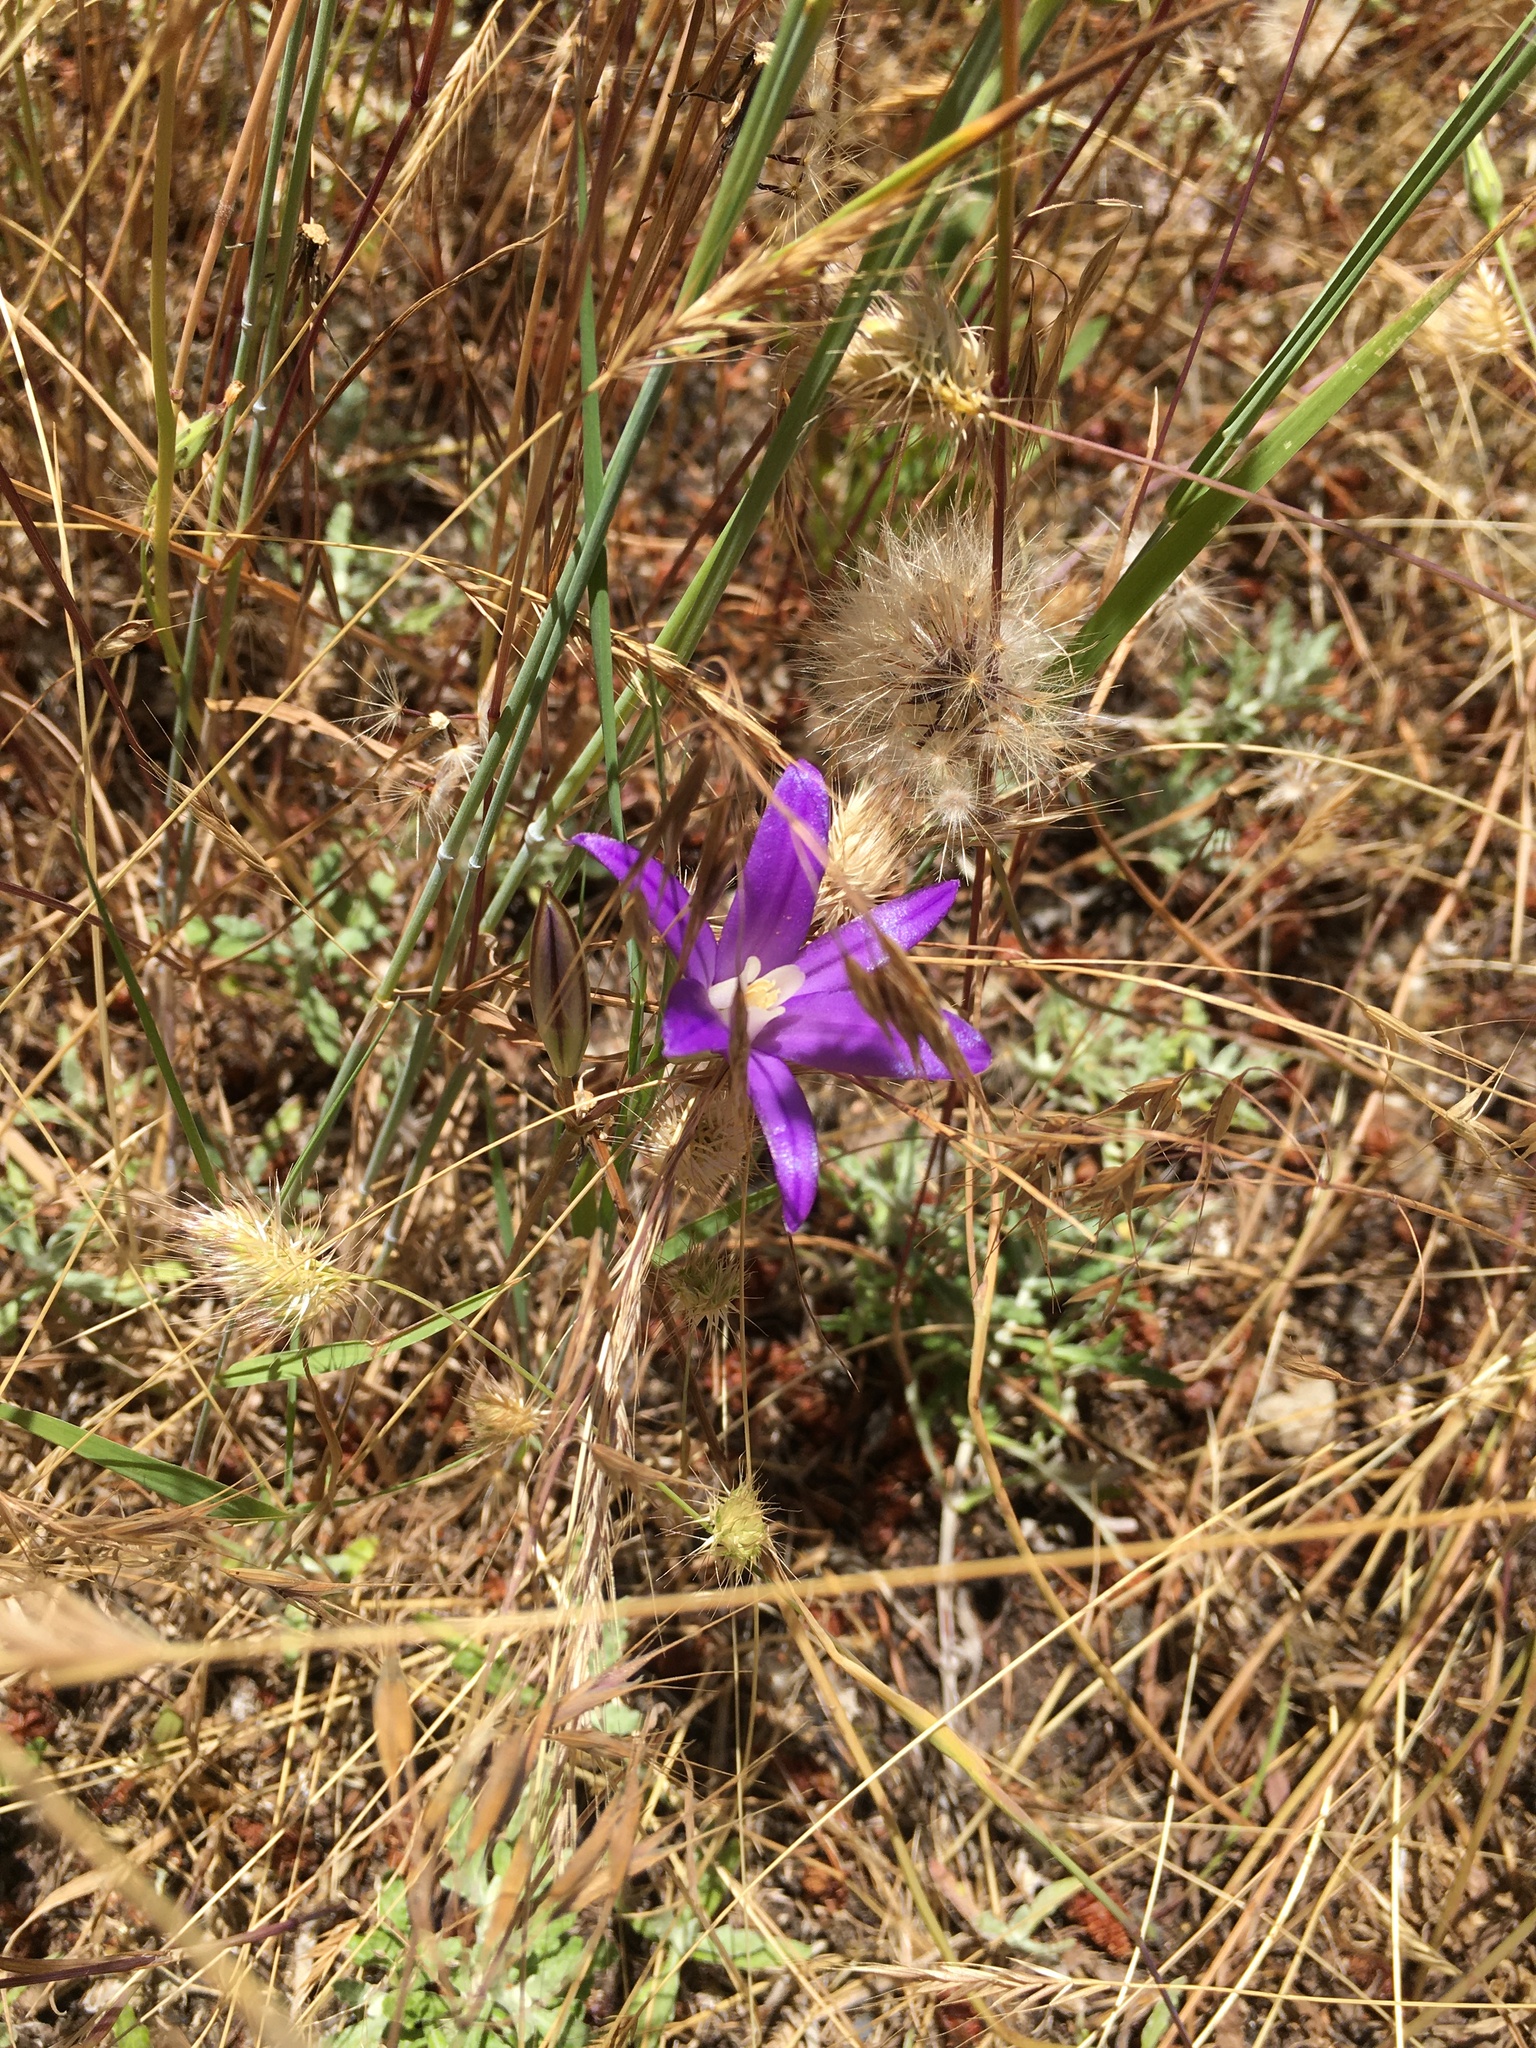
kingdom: Plantae
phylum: Tracheophyta
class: Liliopsida
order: Asparagales
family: Asparagaceae
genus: Brodiaea
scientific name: Brodiaea coronaria
